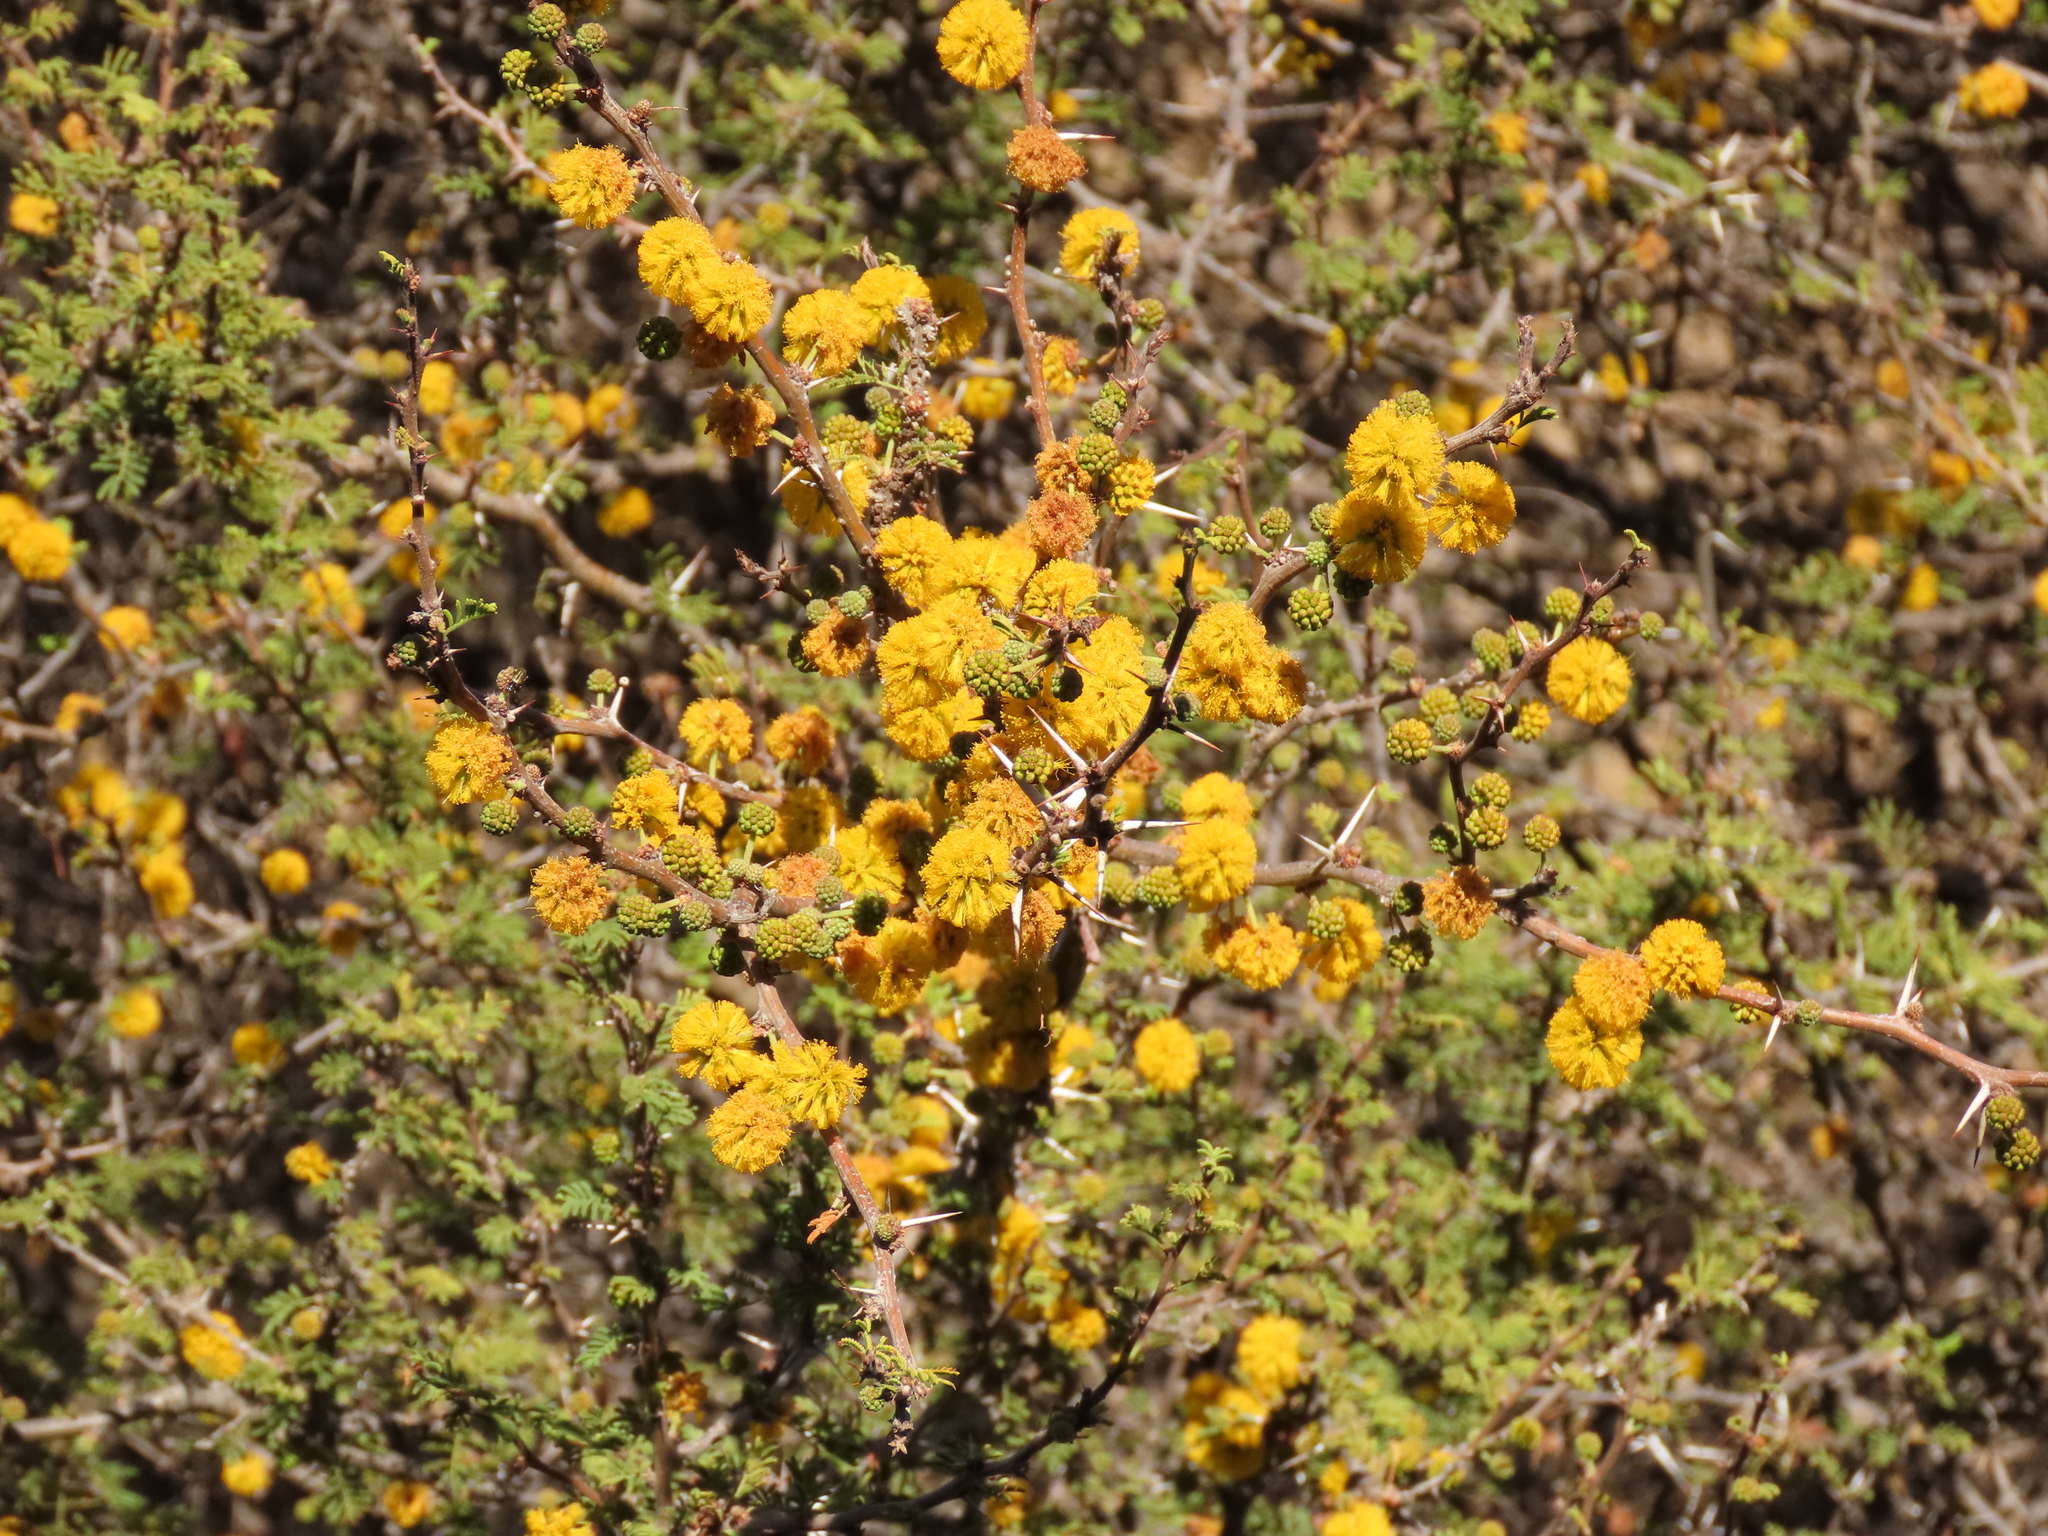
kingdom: Plantae
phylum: Tracheophyta
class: Magnoliopsida
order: Fabales
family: Fabaceae
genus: Vachellia
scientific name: Vachellia caven
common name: Roman cassie
